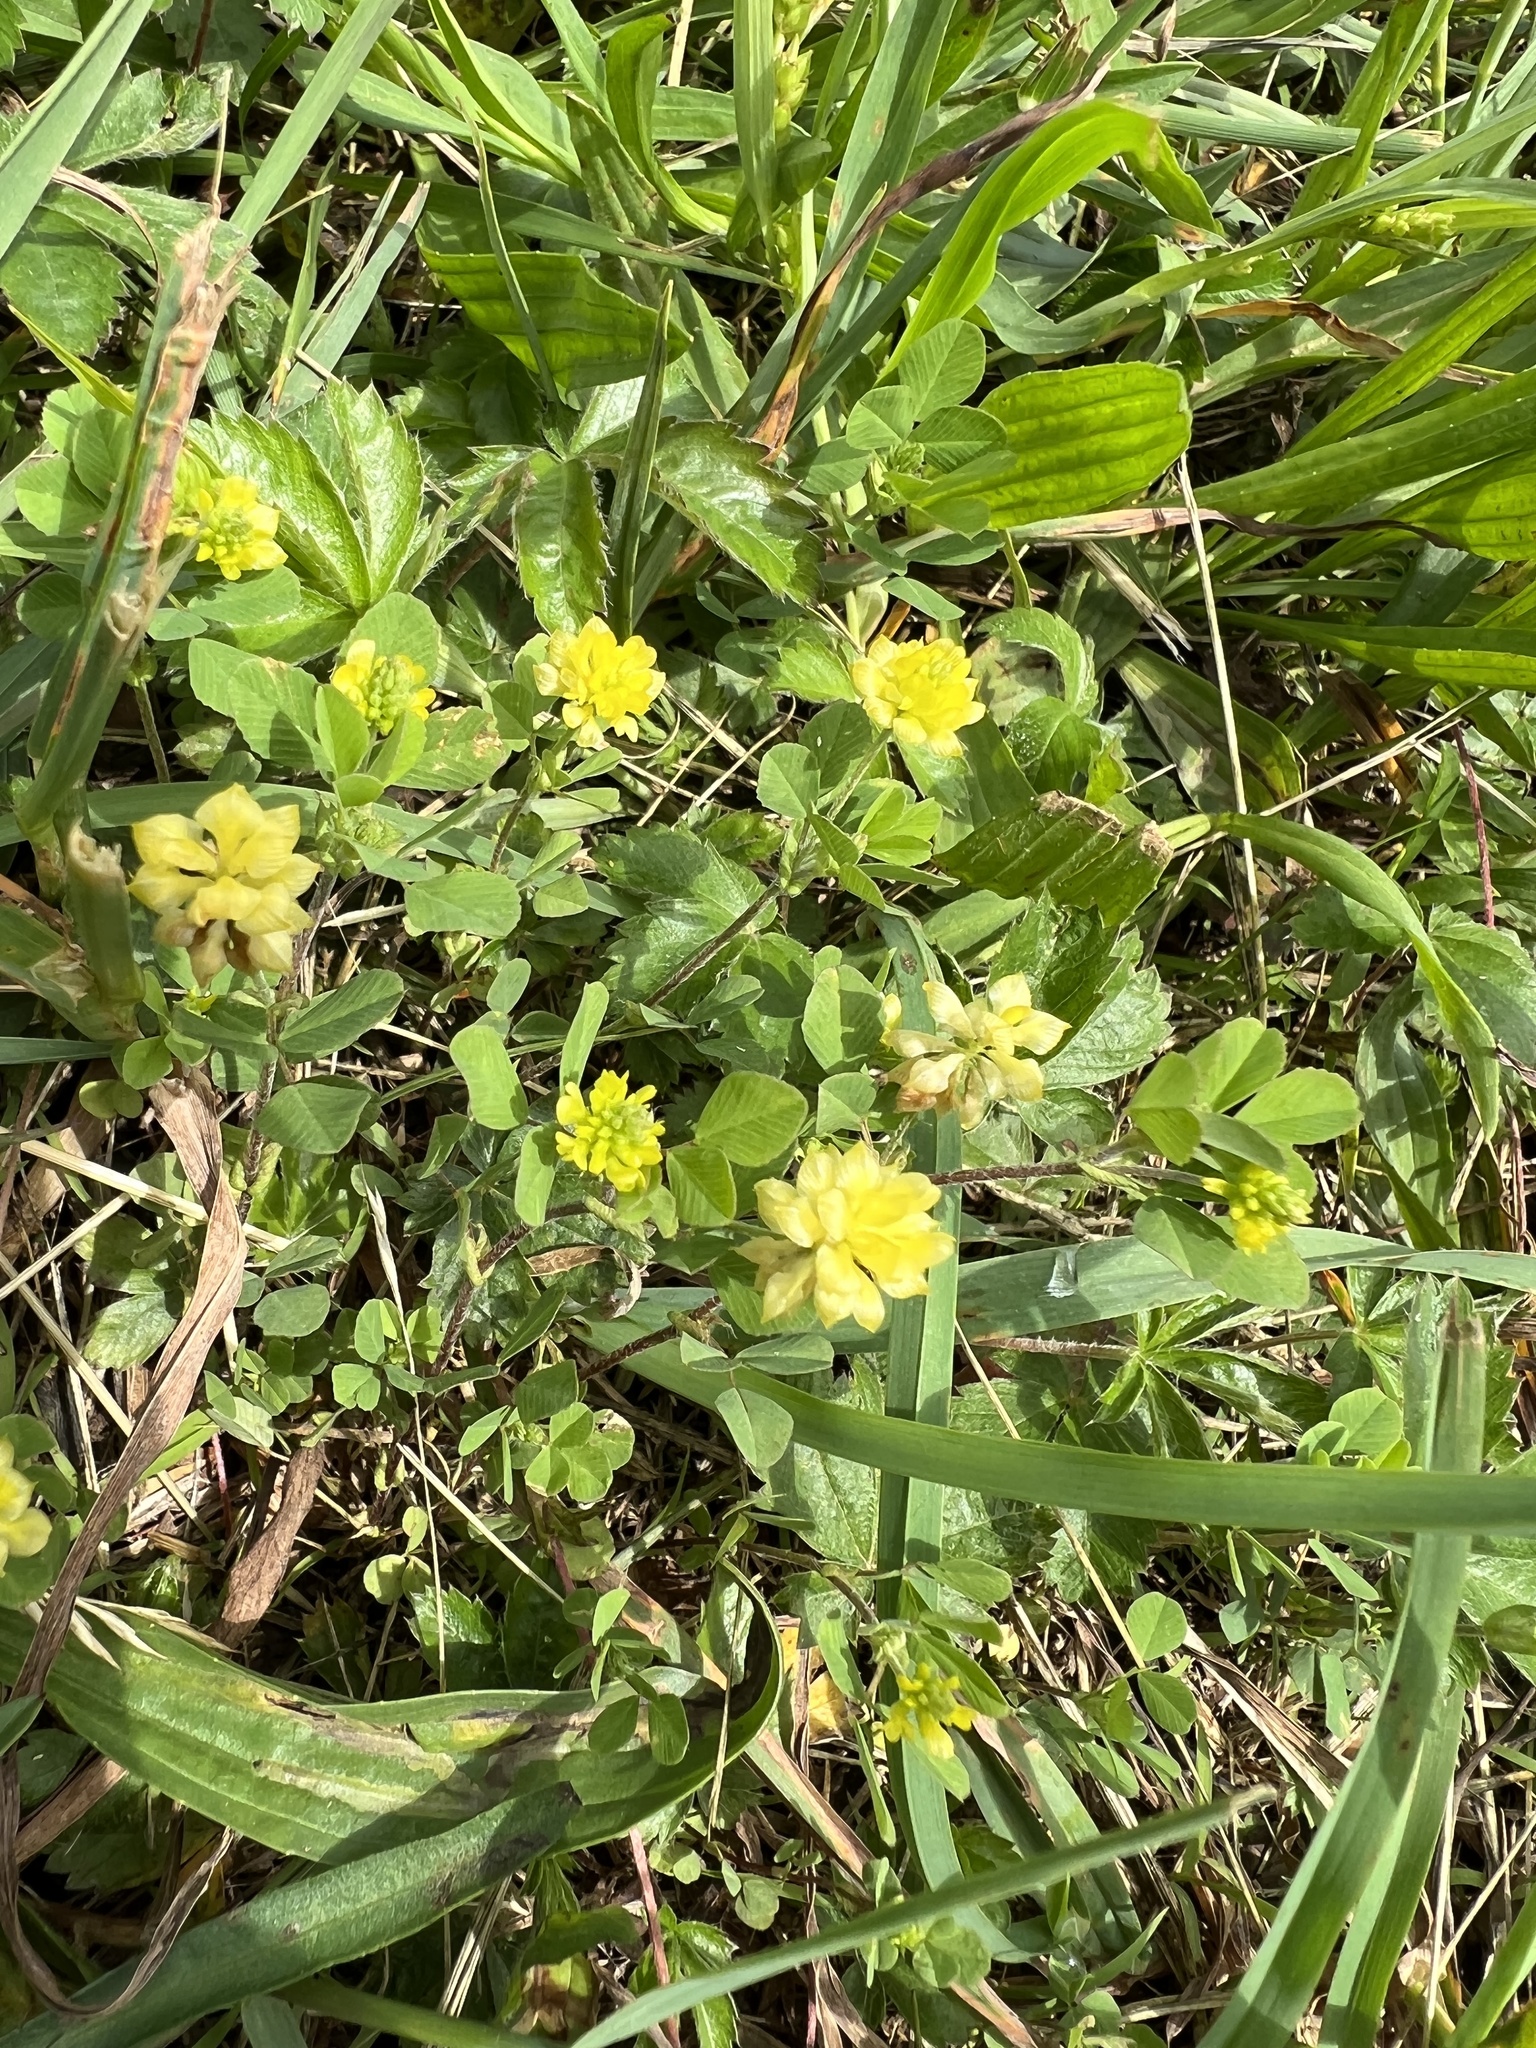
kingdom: Plantae
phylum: Tracheophyta
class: Magnoliopsida
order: Fabales
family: Fabaceae
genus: Trifolium
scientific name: Trifolium campestre
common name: Field clover
